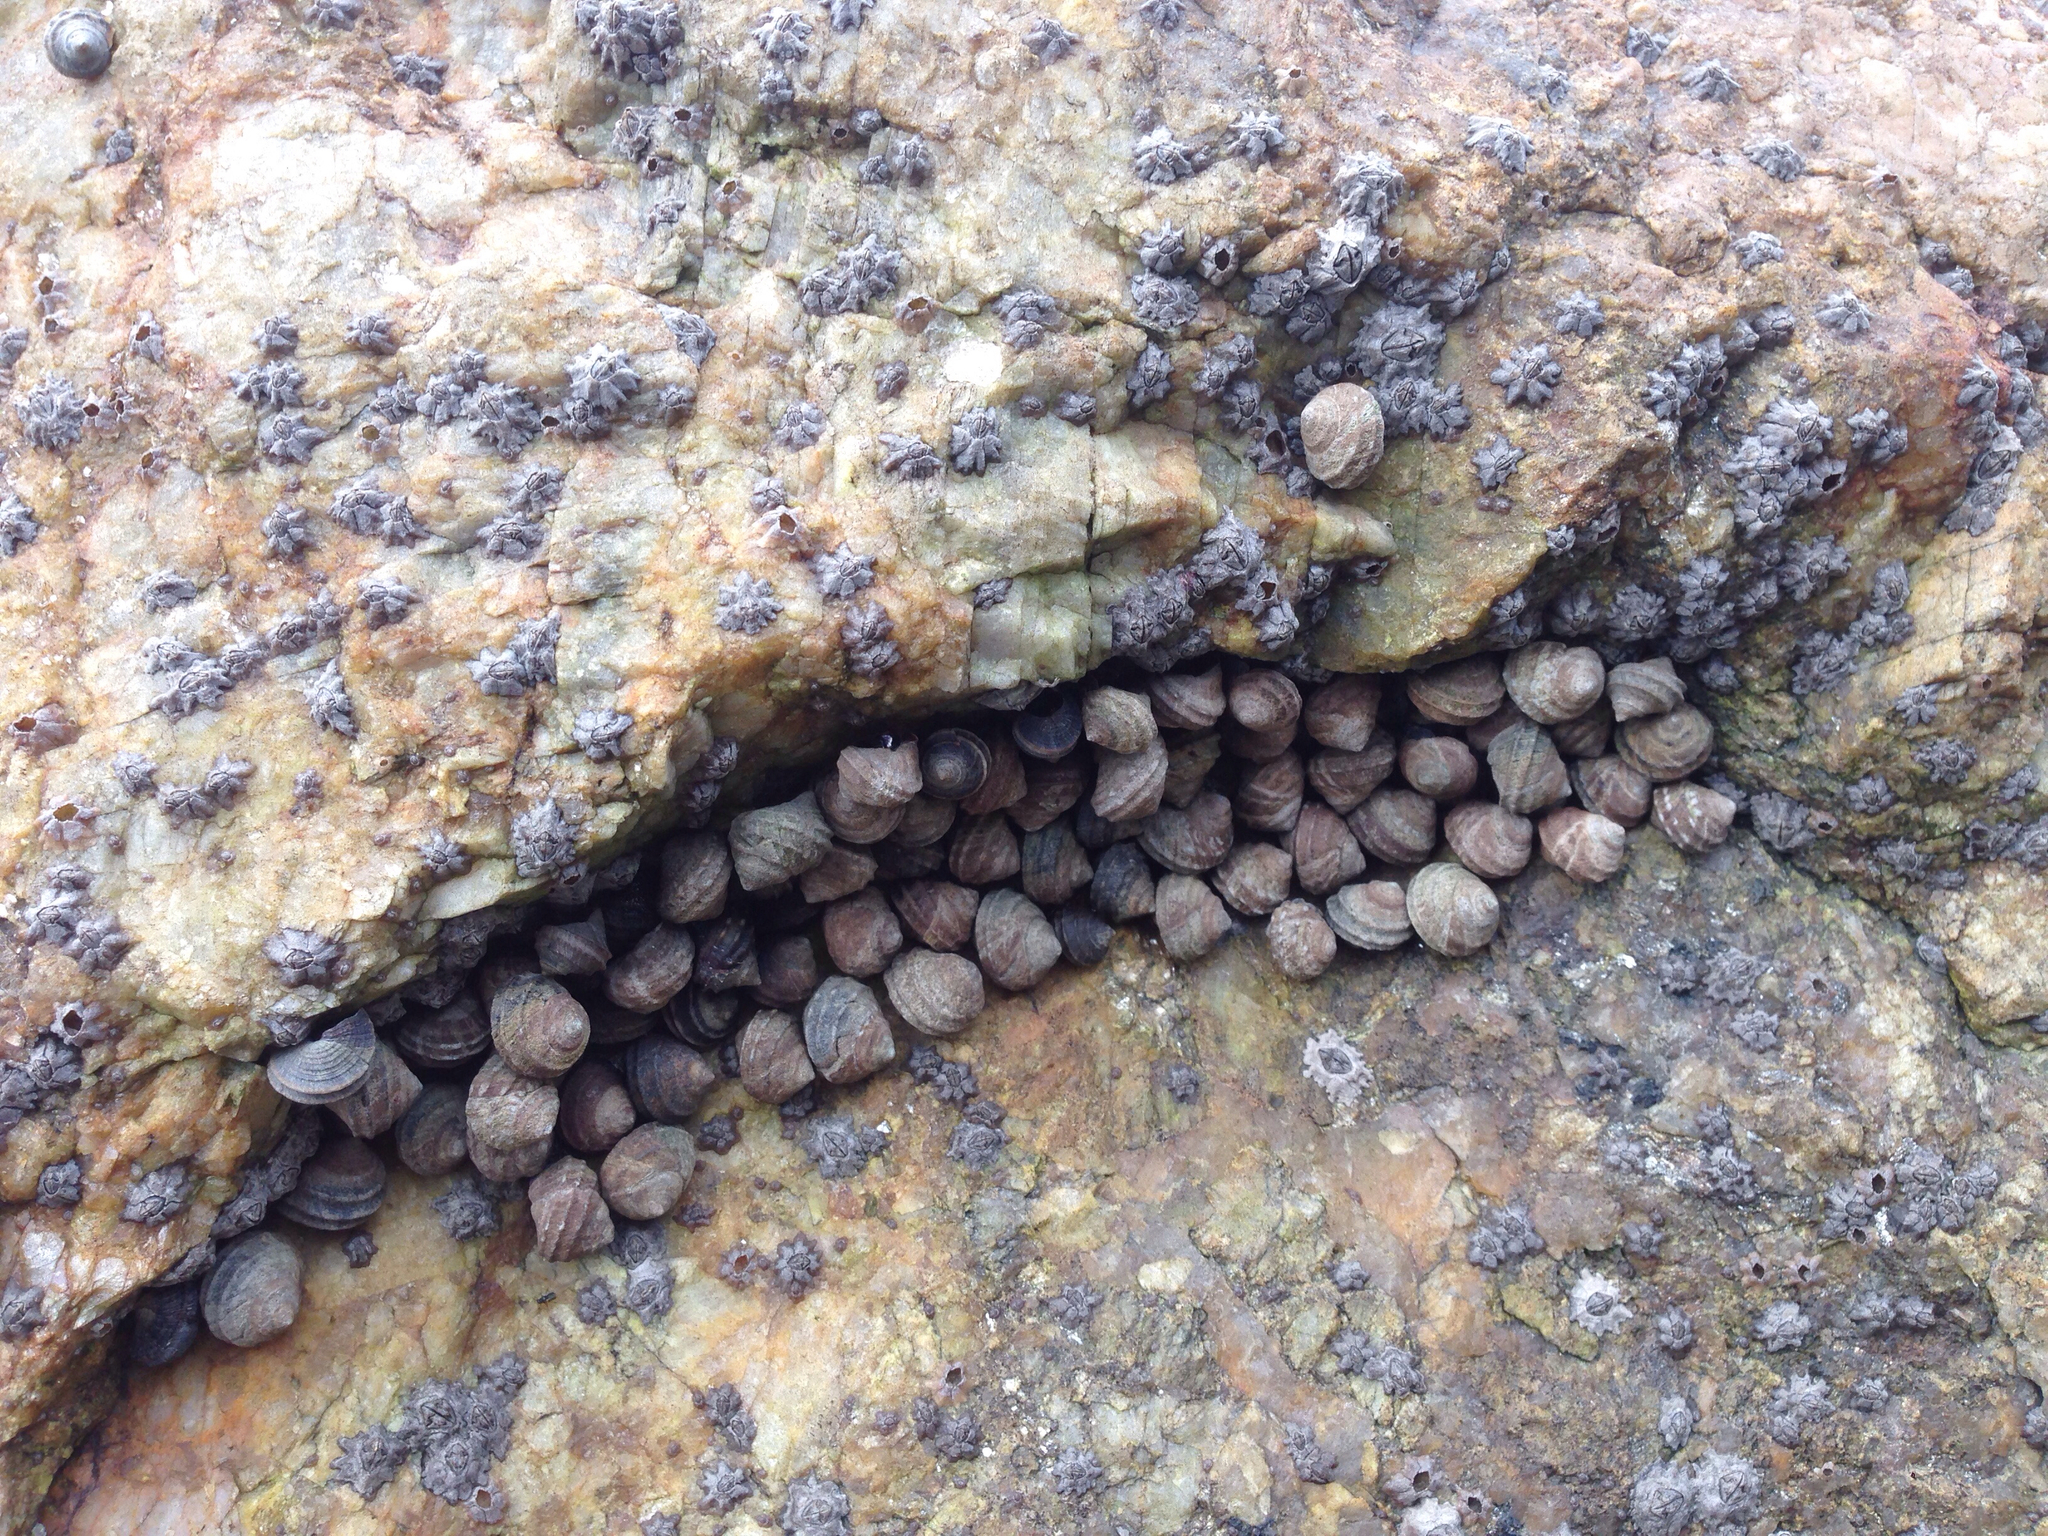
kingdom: Animalia
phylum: Mollusca
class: Gastropoda
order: Littorinimorpha
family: Littorinidae
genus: Littorina
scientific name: Littorina brevicula
